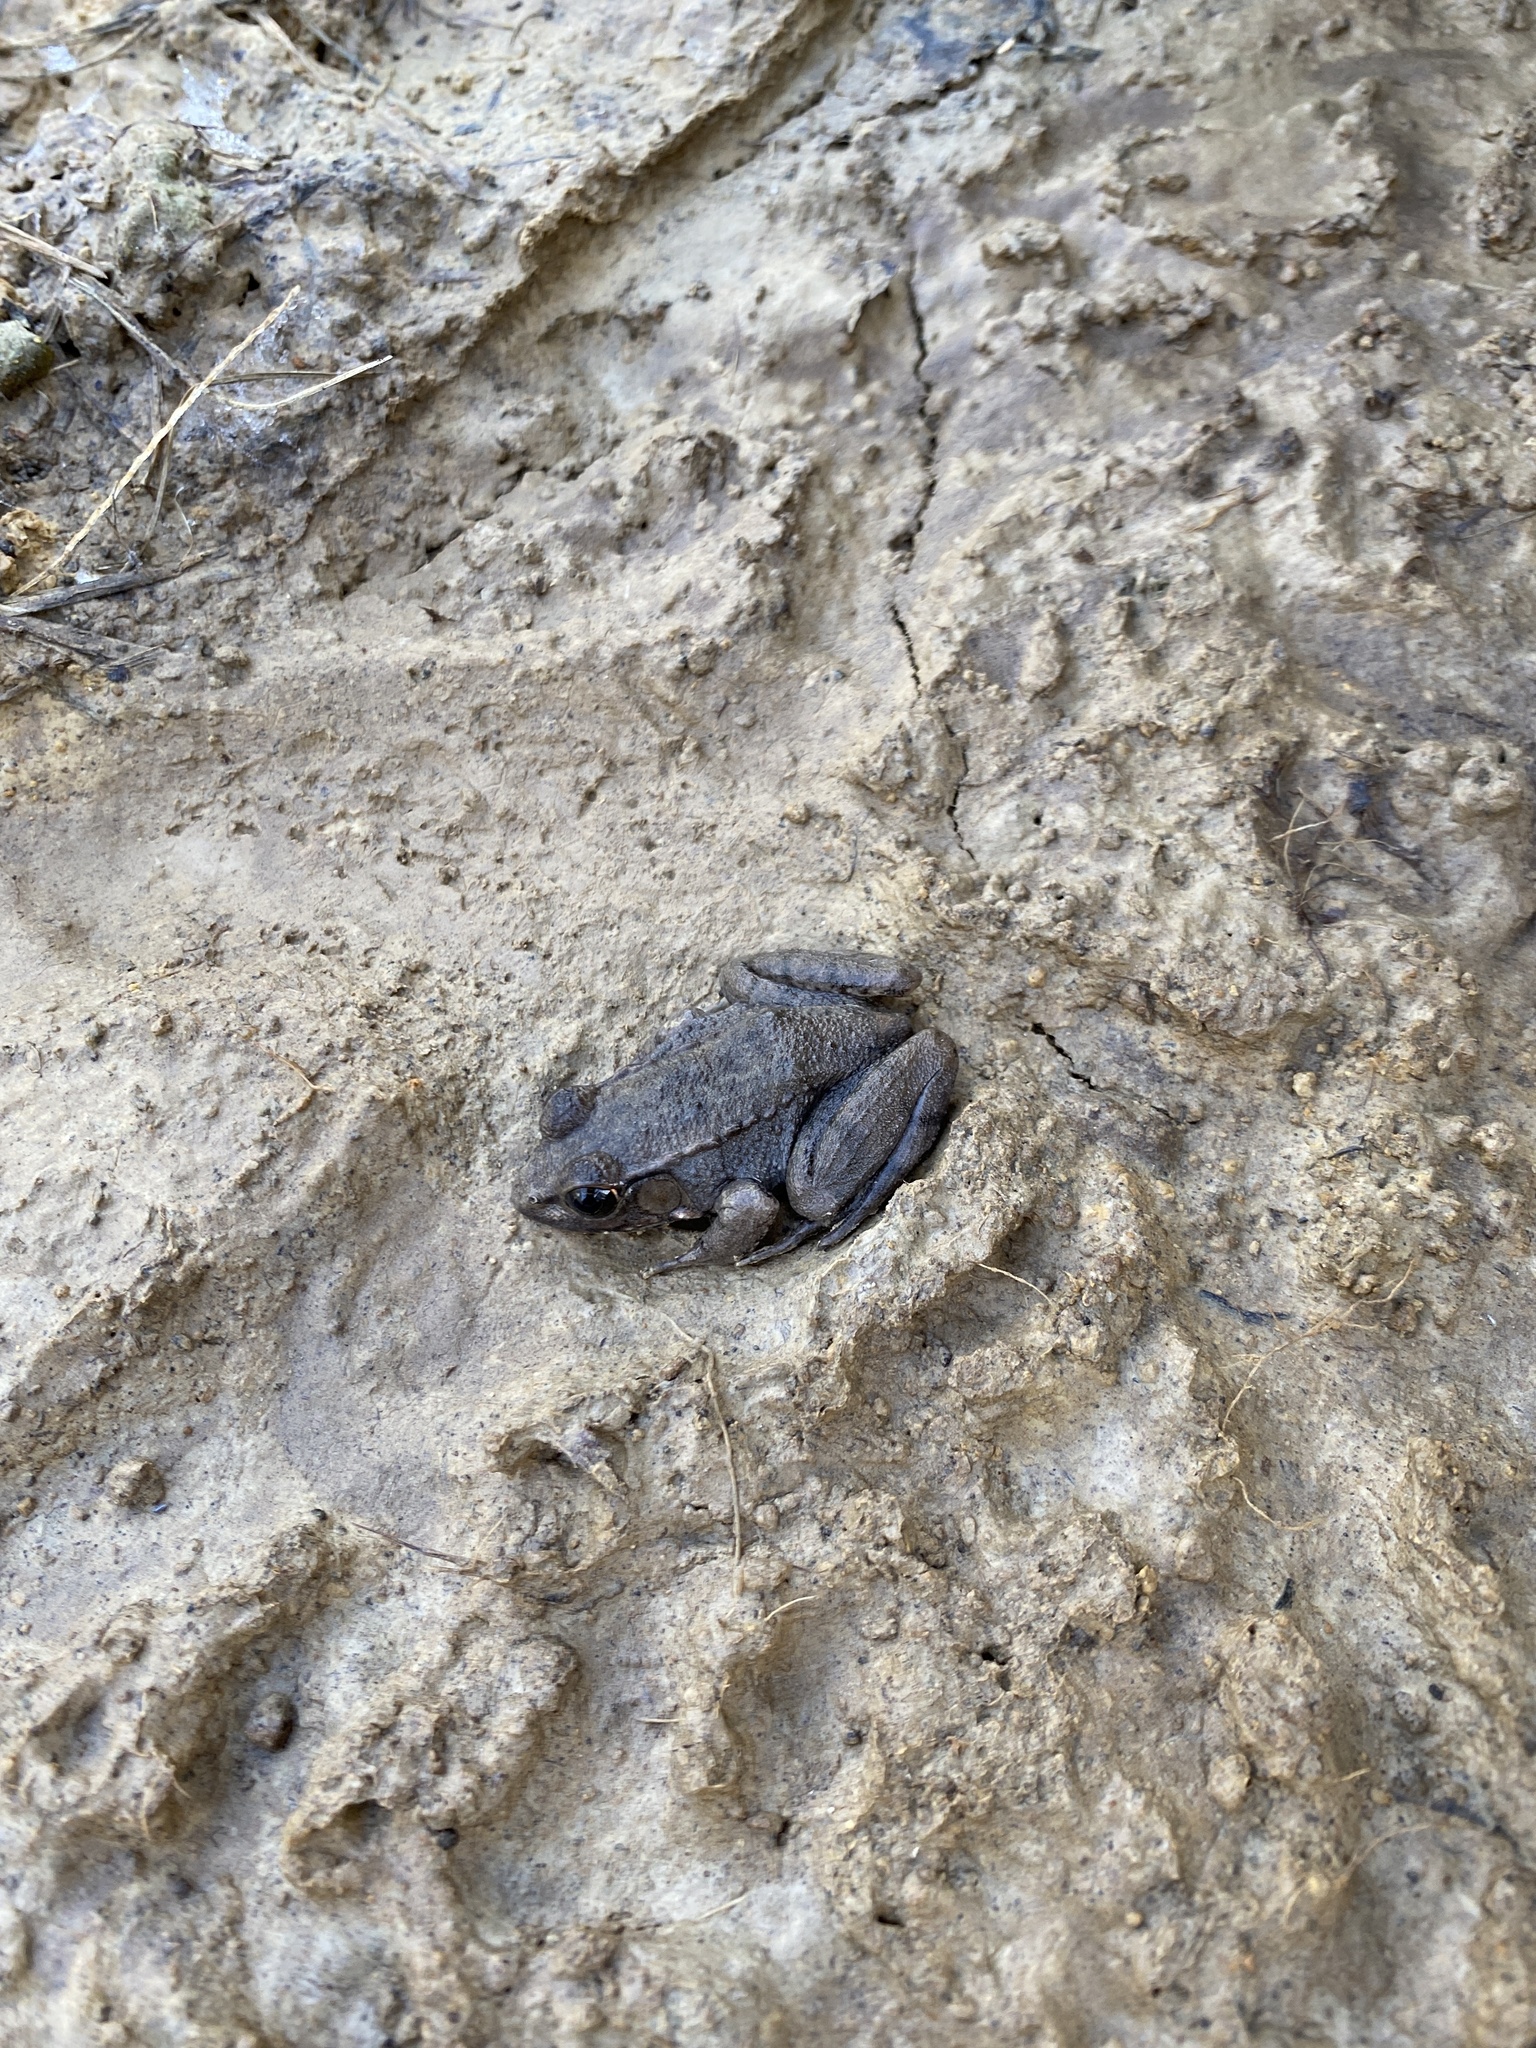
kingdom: Animalia
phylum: Chordata
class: Amphibia
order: Anura
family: Ranidae
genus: Lithobates
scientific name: Lithobates clamitans
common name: Green frog
